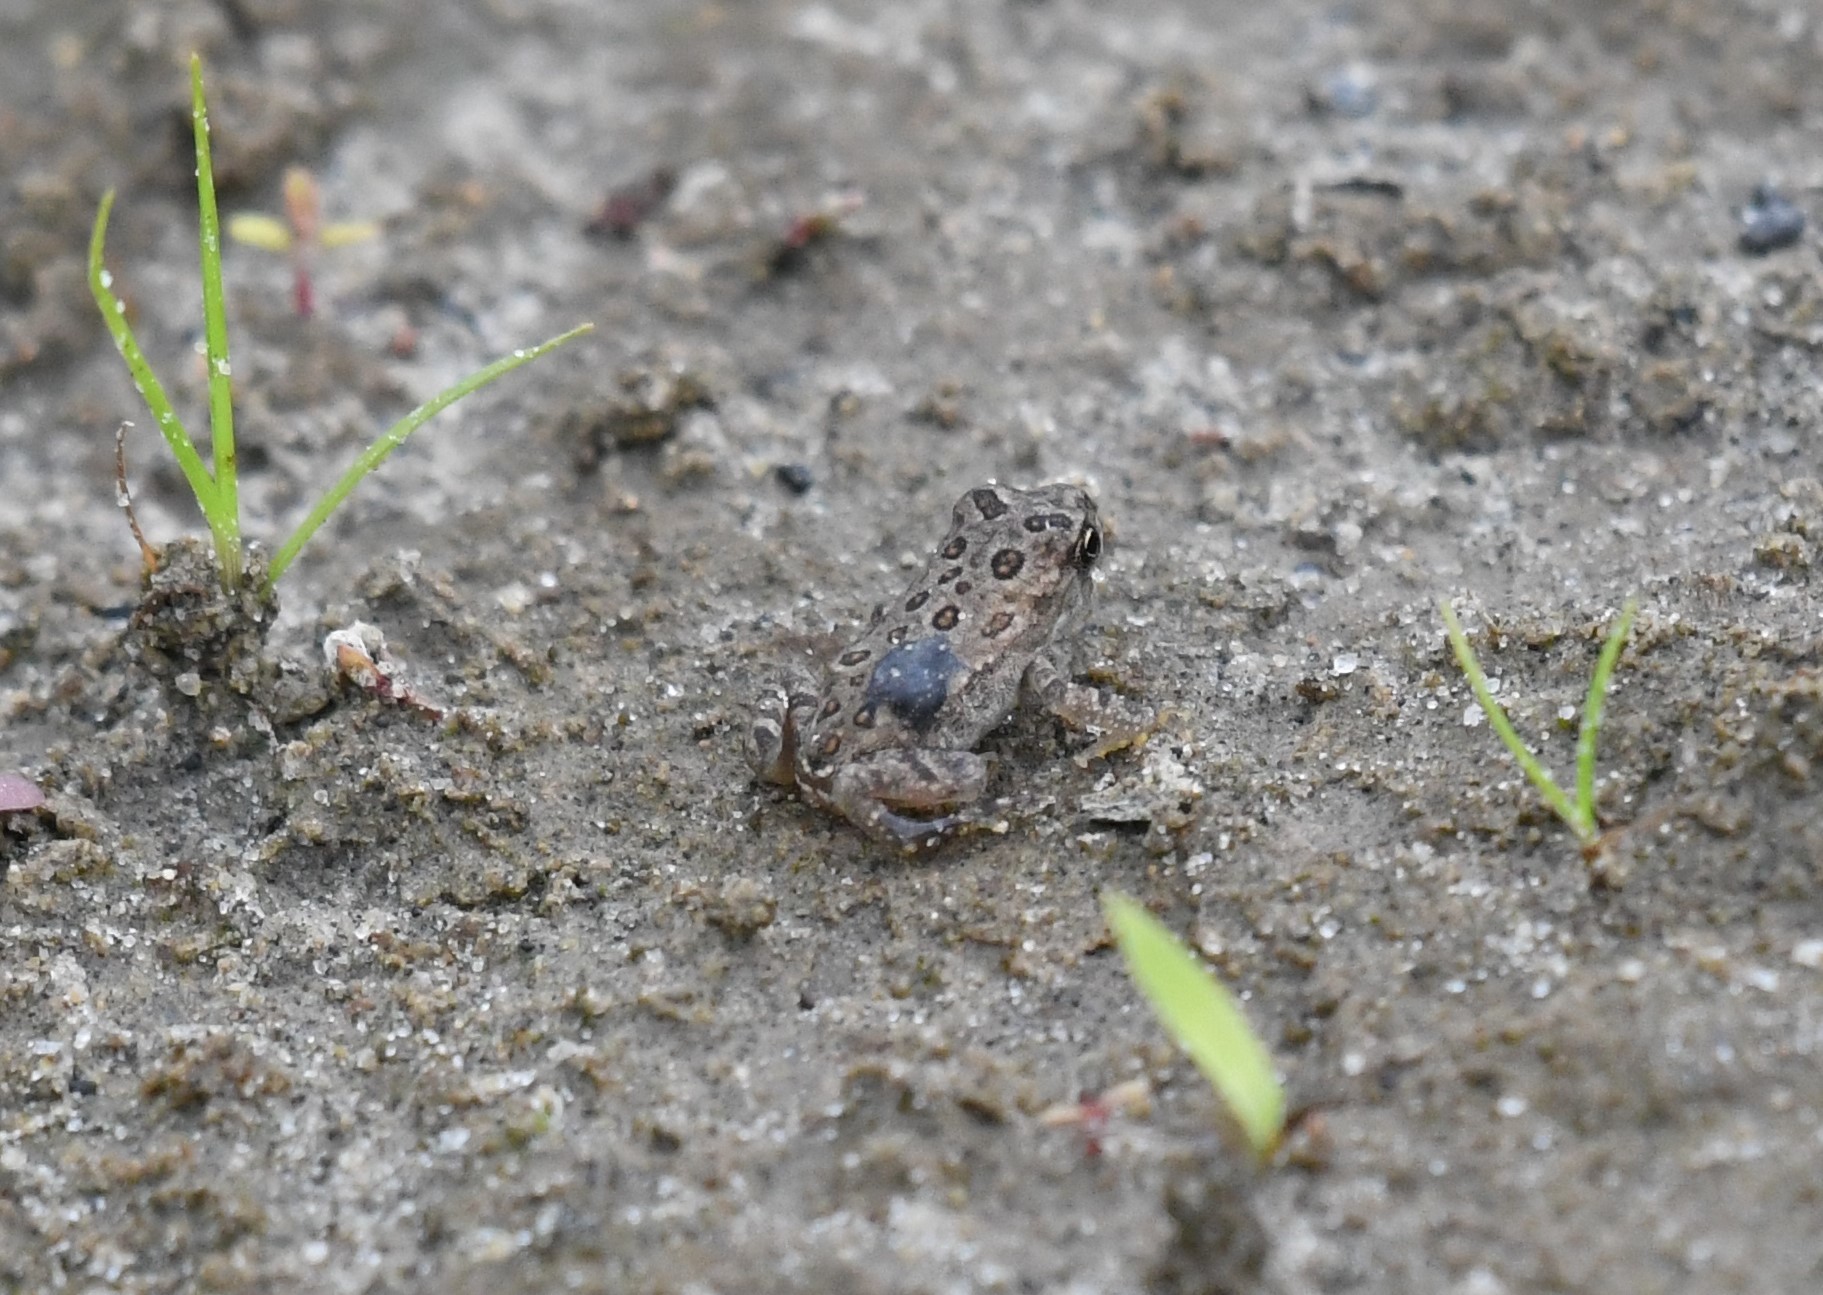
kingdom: Animalia
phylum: Chordata
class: Amphibia
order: Anura
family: Bufonidae
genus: Anaxyrus
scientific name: Anaxyrus americanus
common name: American toad
